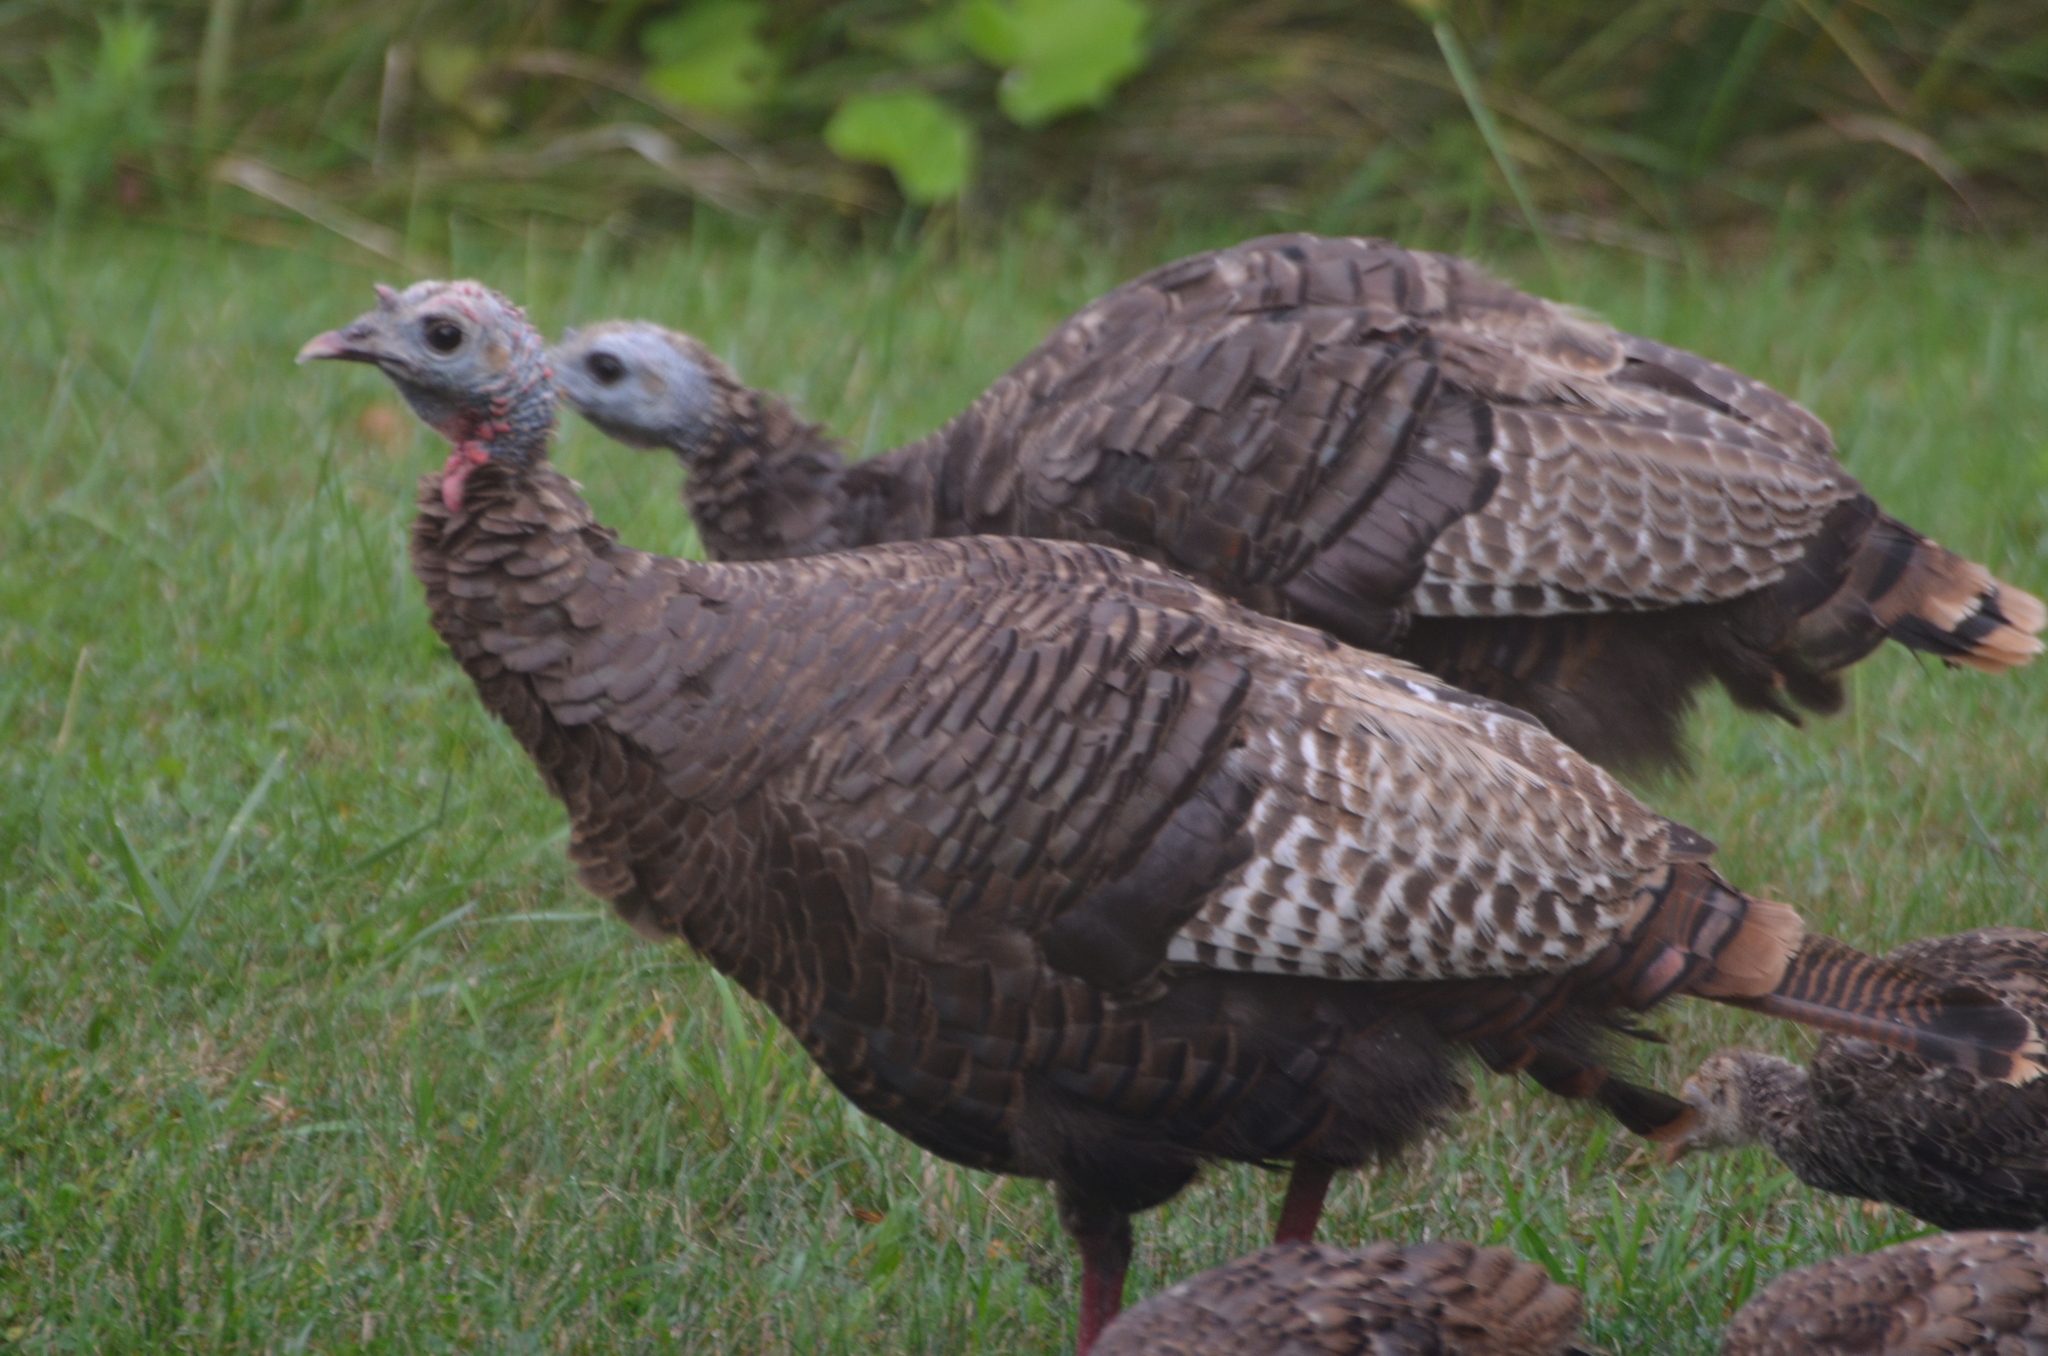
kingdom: Animalia
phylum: Chordata
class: Aves
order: Galliformes
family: Phasianidae
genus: Meleagris
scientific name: Meleagris gallopavo
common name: Wild turkey
